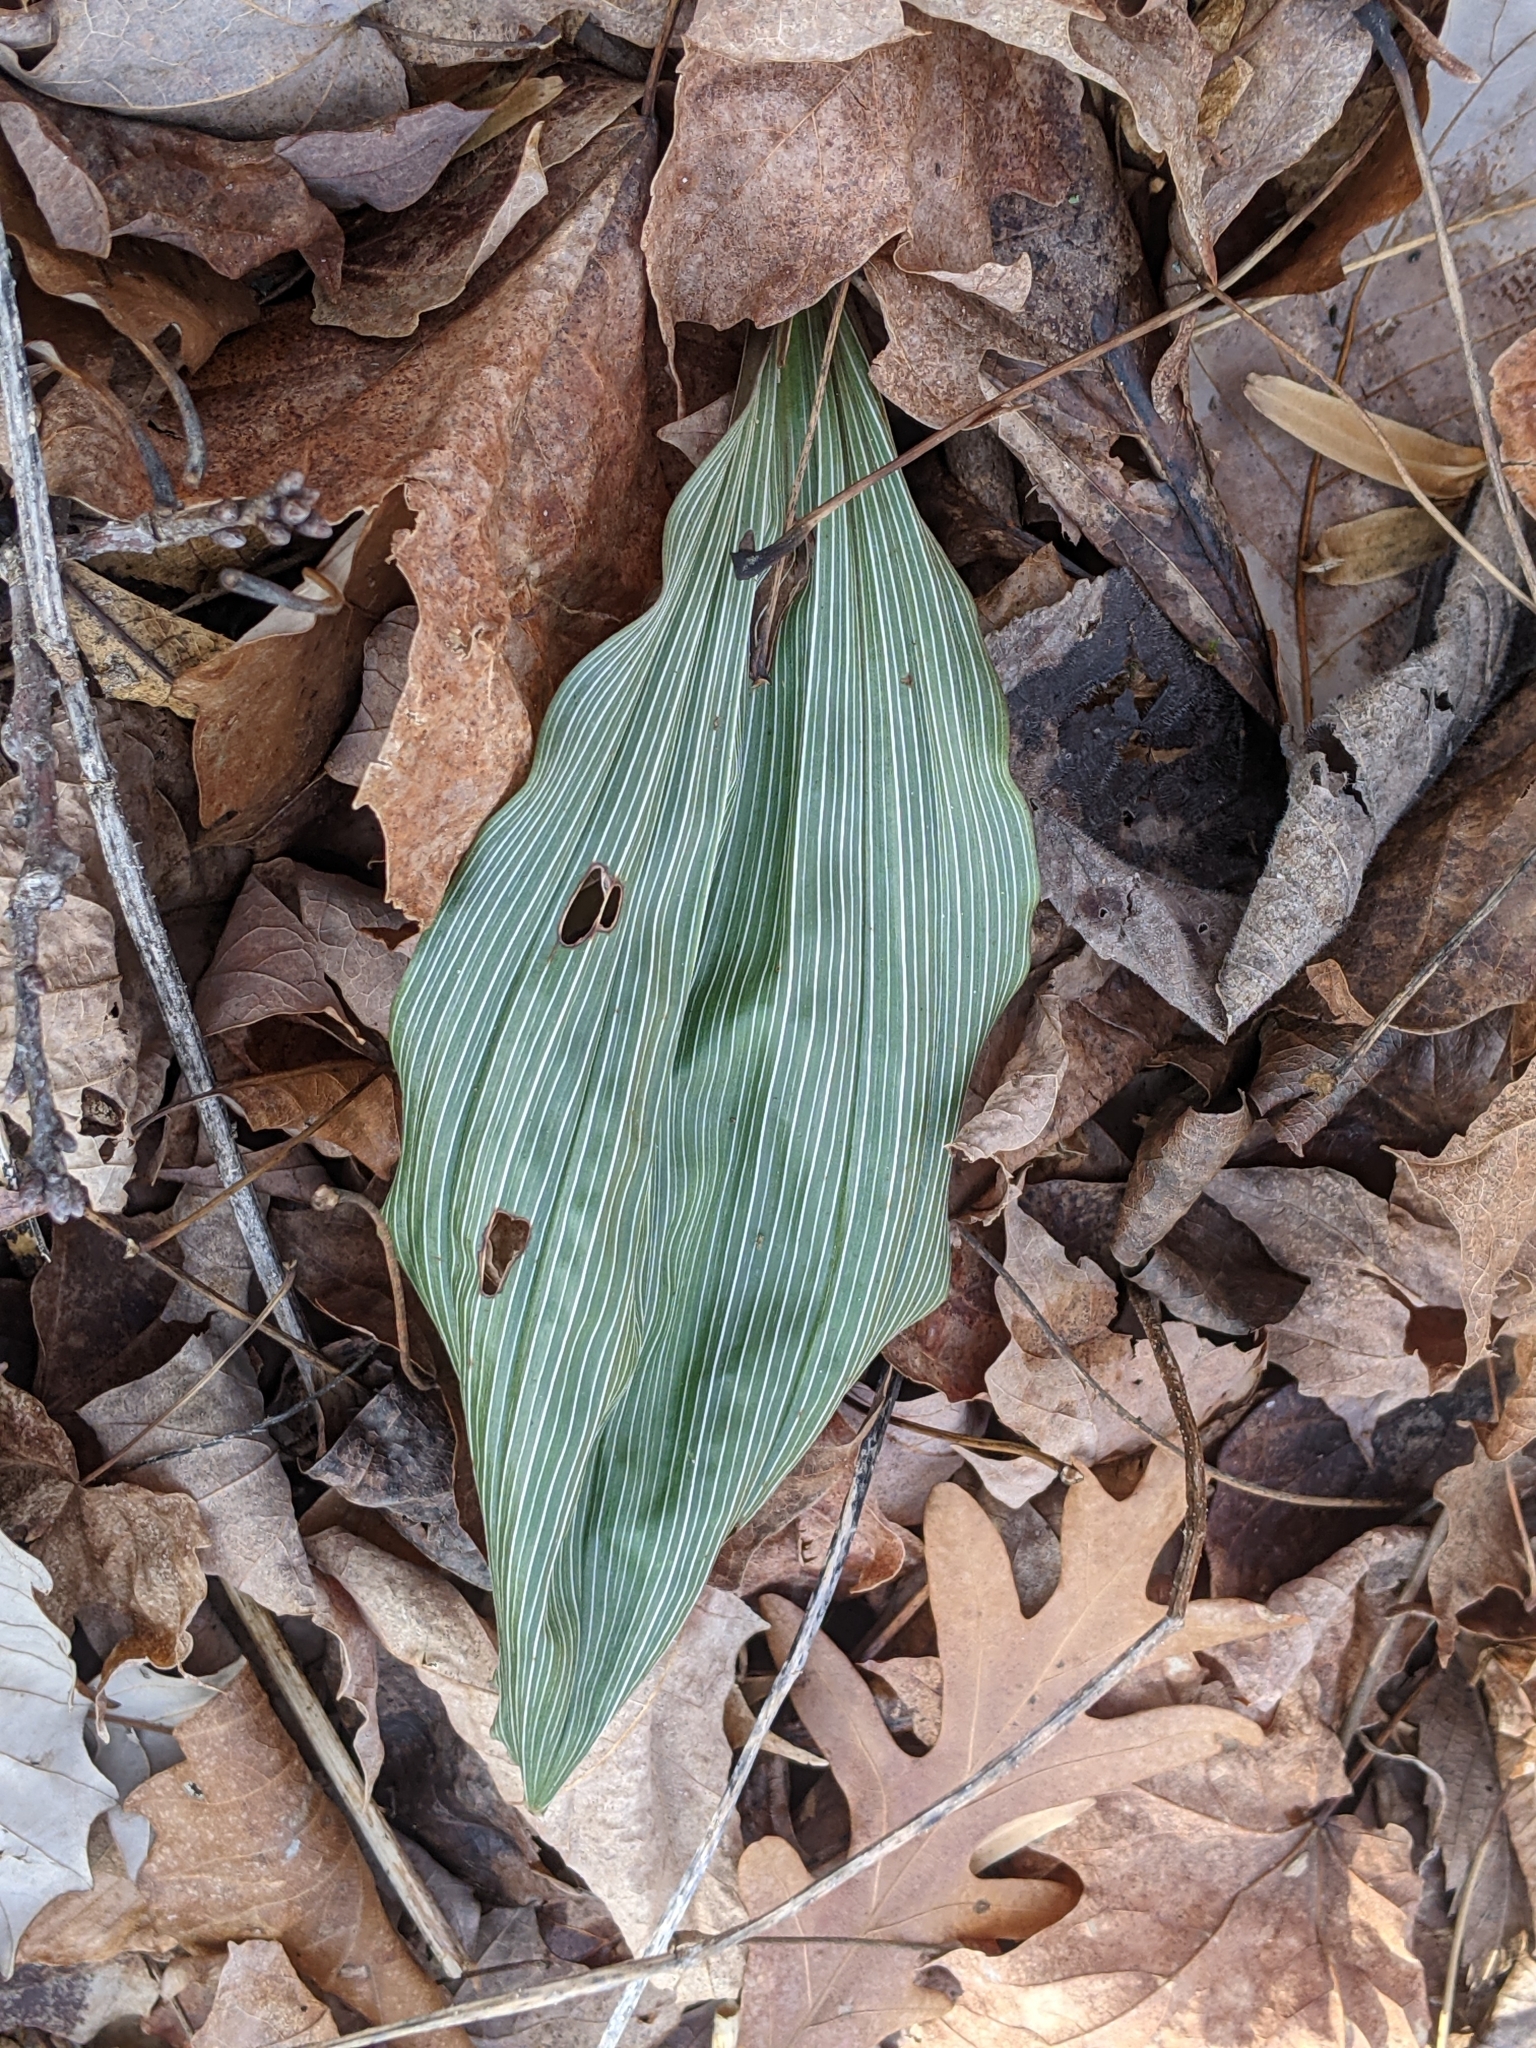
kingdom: Plantae
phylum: Tracheophyta
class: Liliopsida
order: Asparagales
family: Orchidaceae
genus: Aplectrum
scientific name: Aplectrum hyemale
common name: Adam-and-eve
